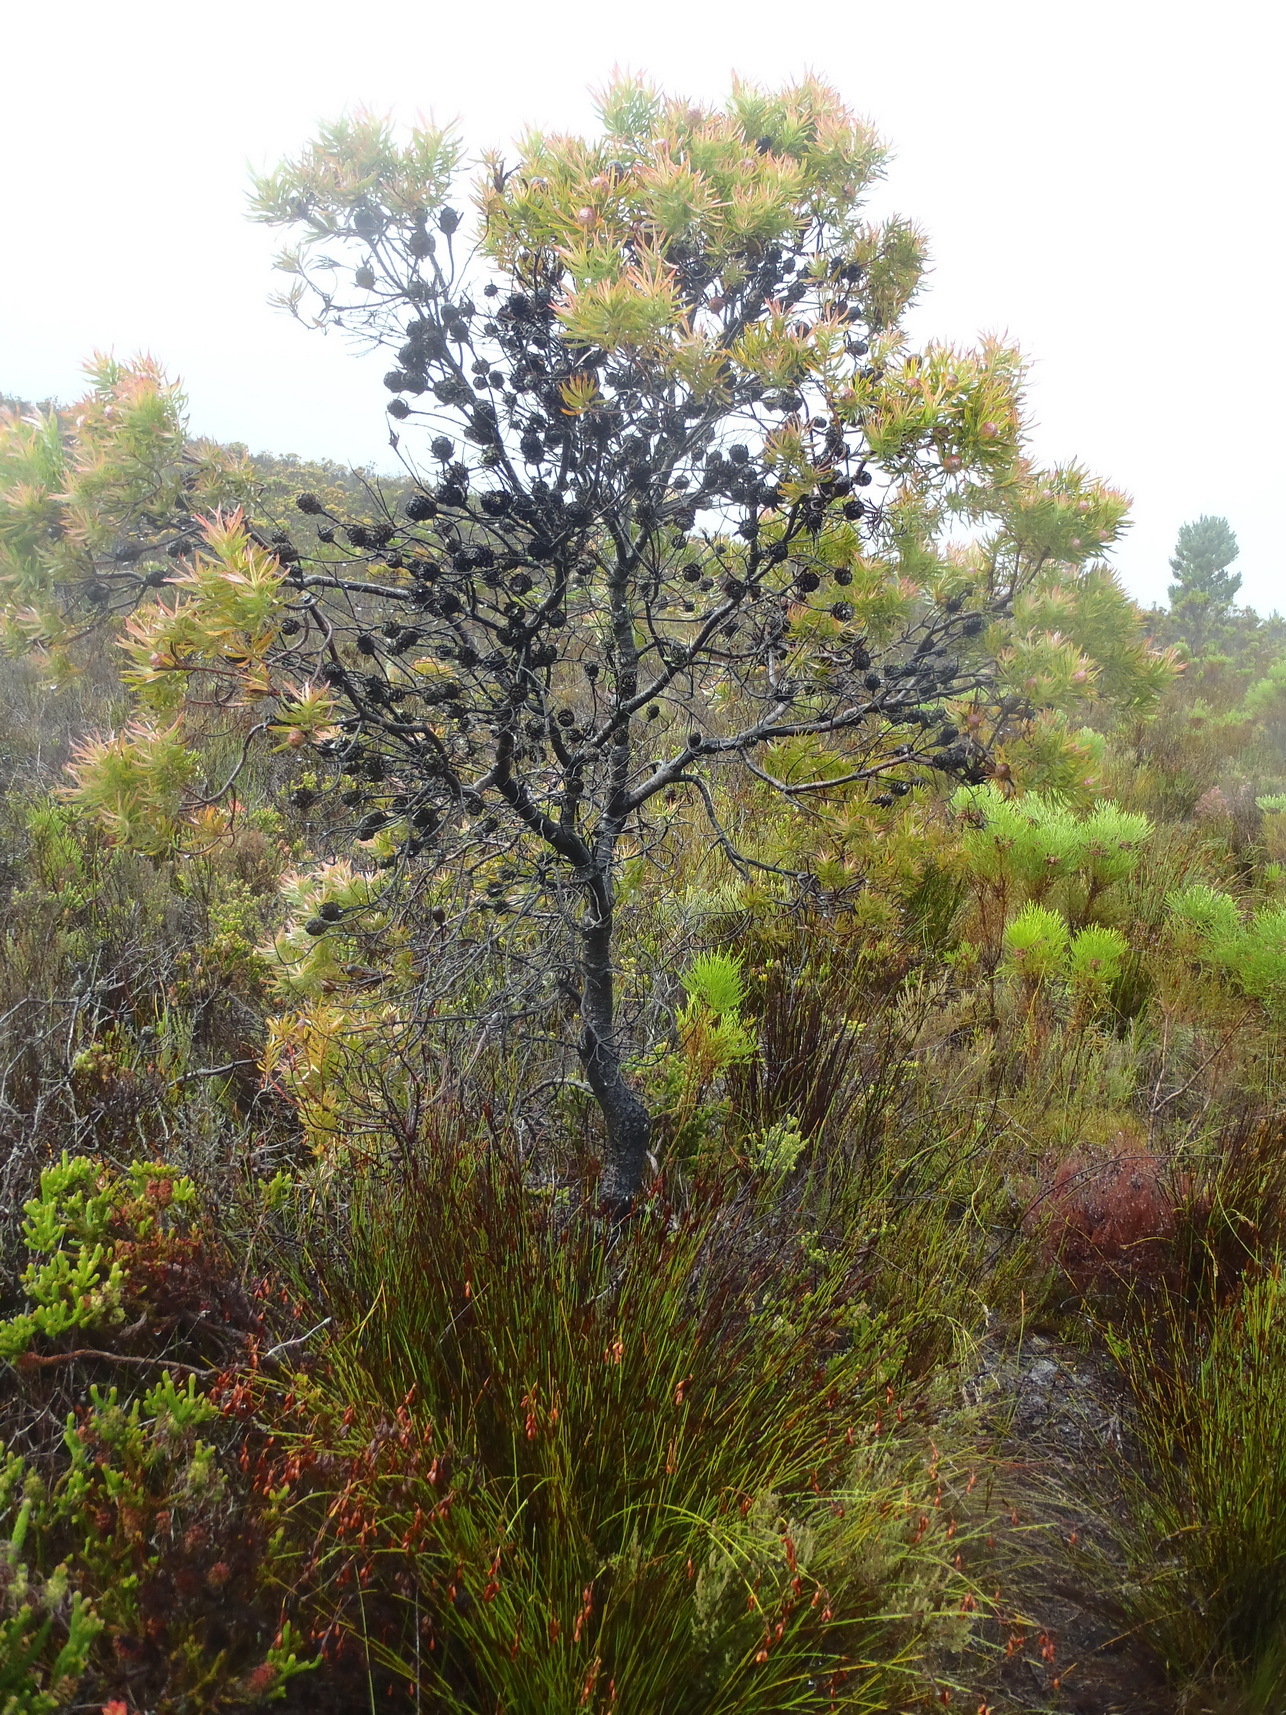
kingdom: Plantae
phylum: Tracheophyta
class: Magnoliopsida
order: Proteales
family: Proteaceae
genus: Leucadendron
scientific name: Leucadendron xanthoconus
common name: Sickle-leaf conebush
